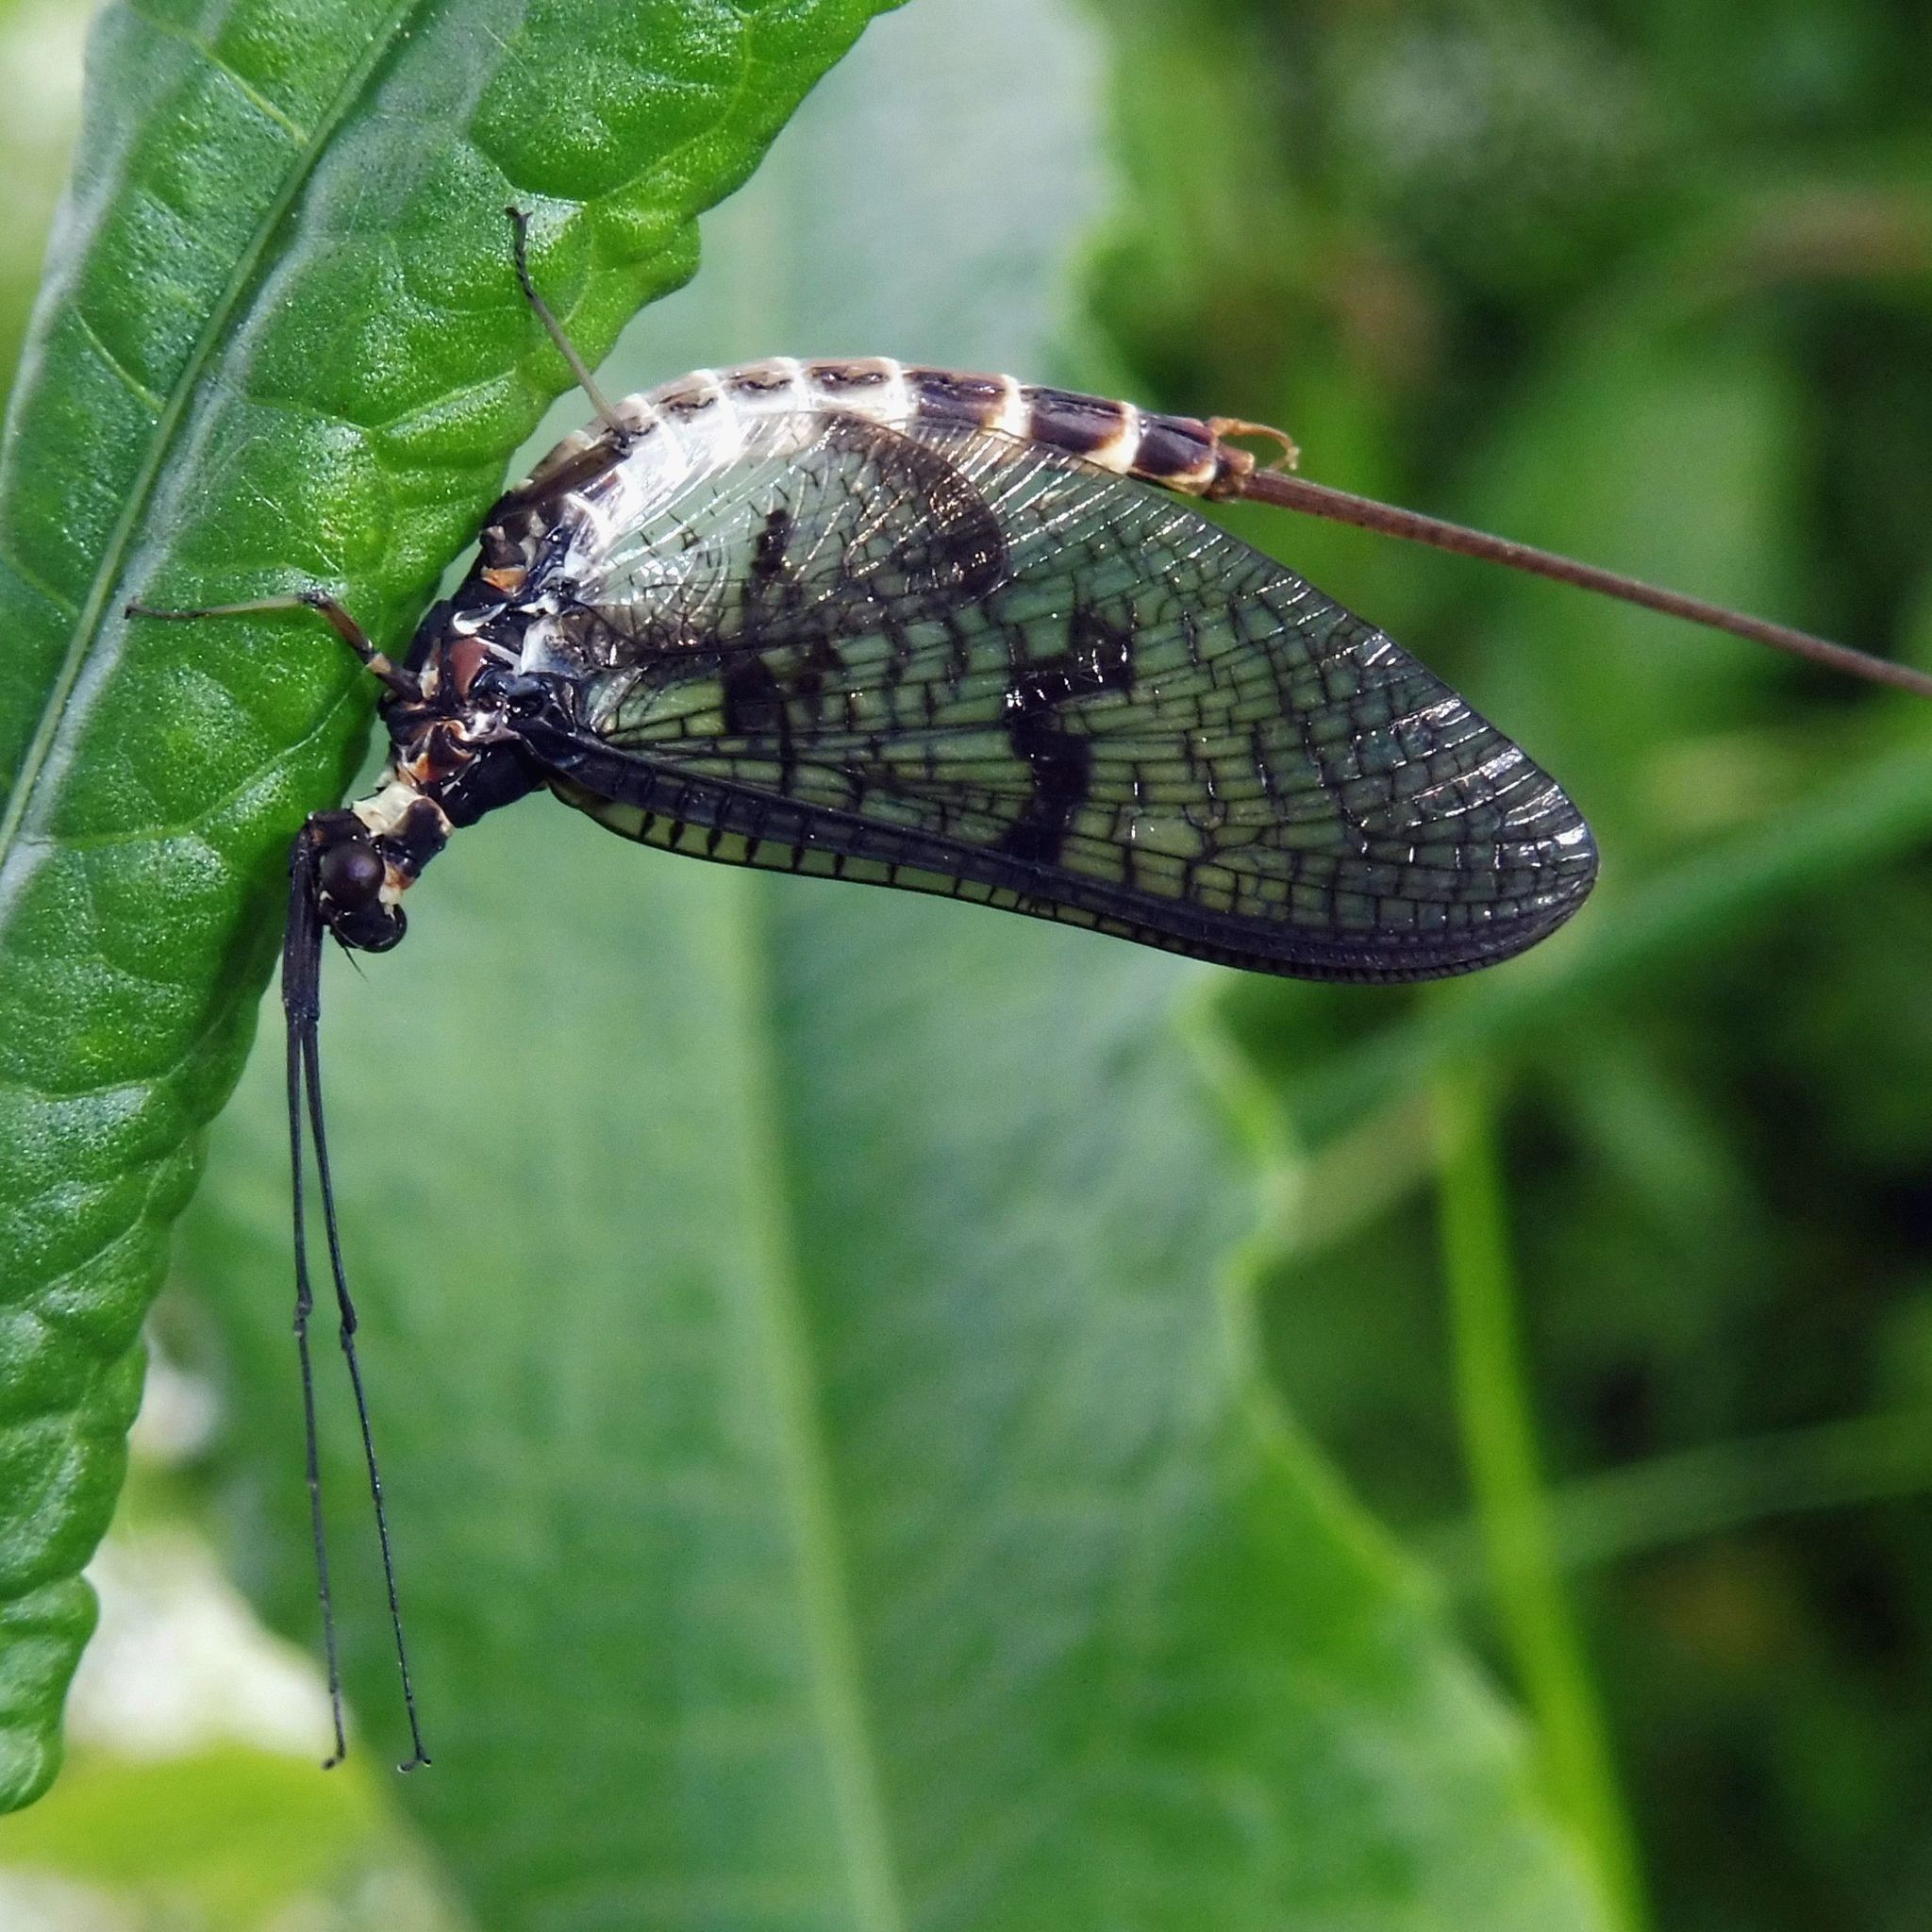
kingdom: Animalia
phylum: Arthropoda
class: Insecta
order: Ephemeroptera
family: Ephemeridae
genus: Ephemera
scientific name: Ephemera danica
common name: Green dun
